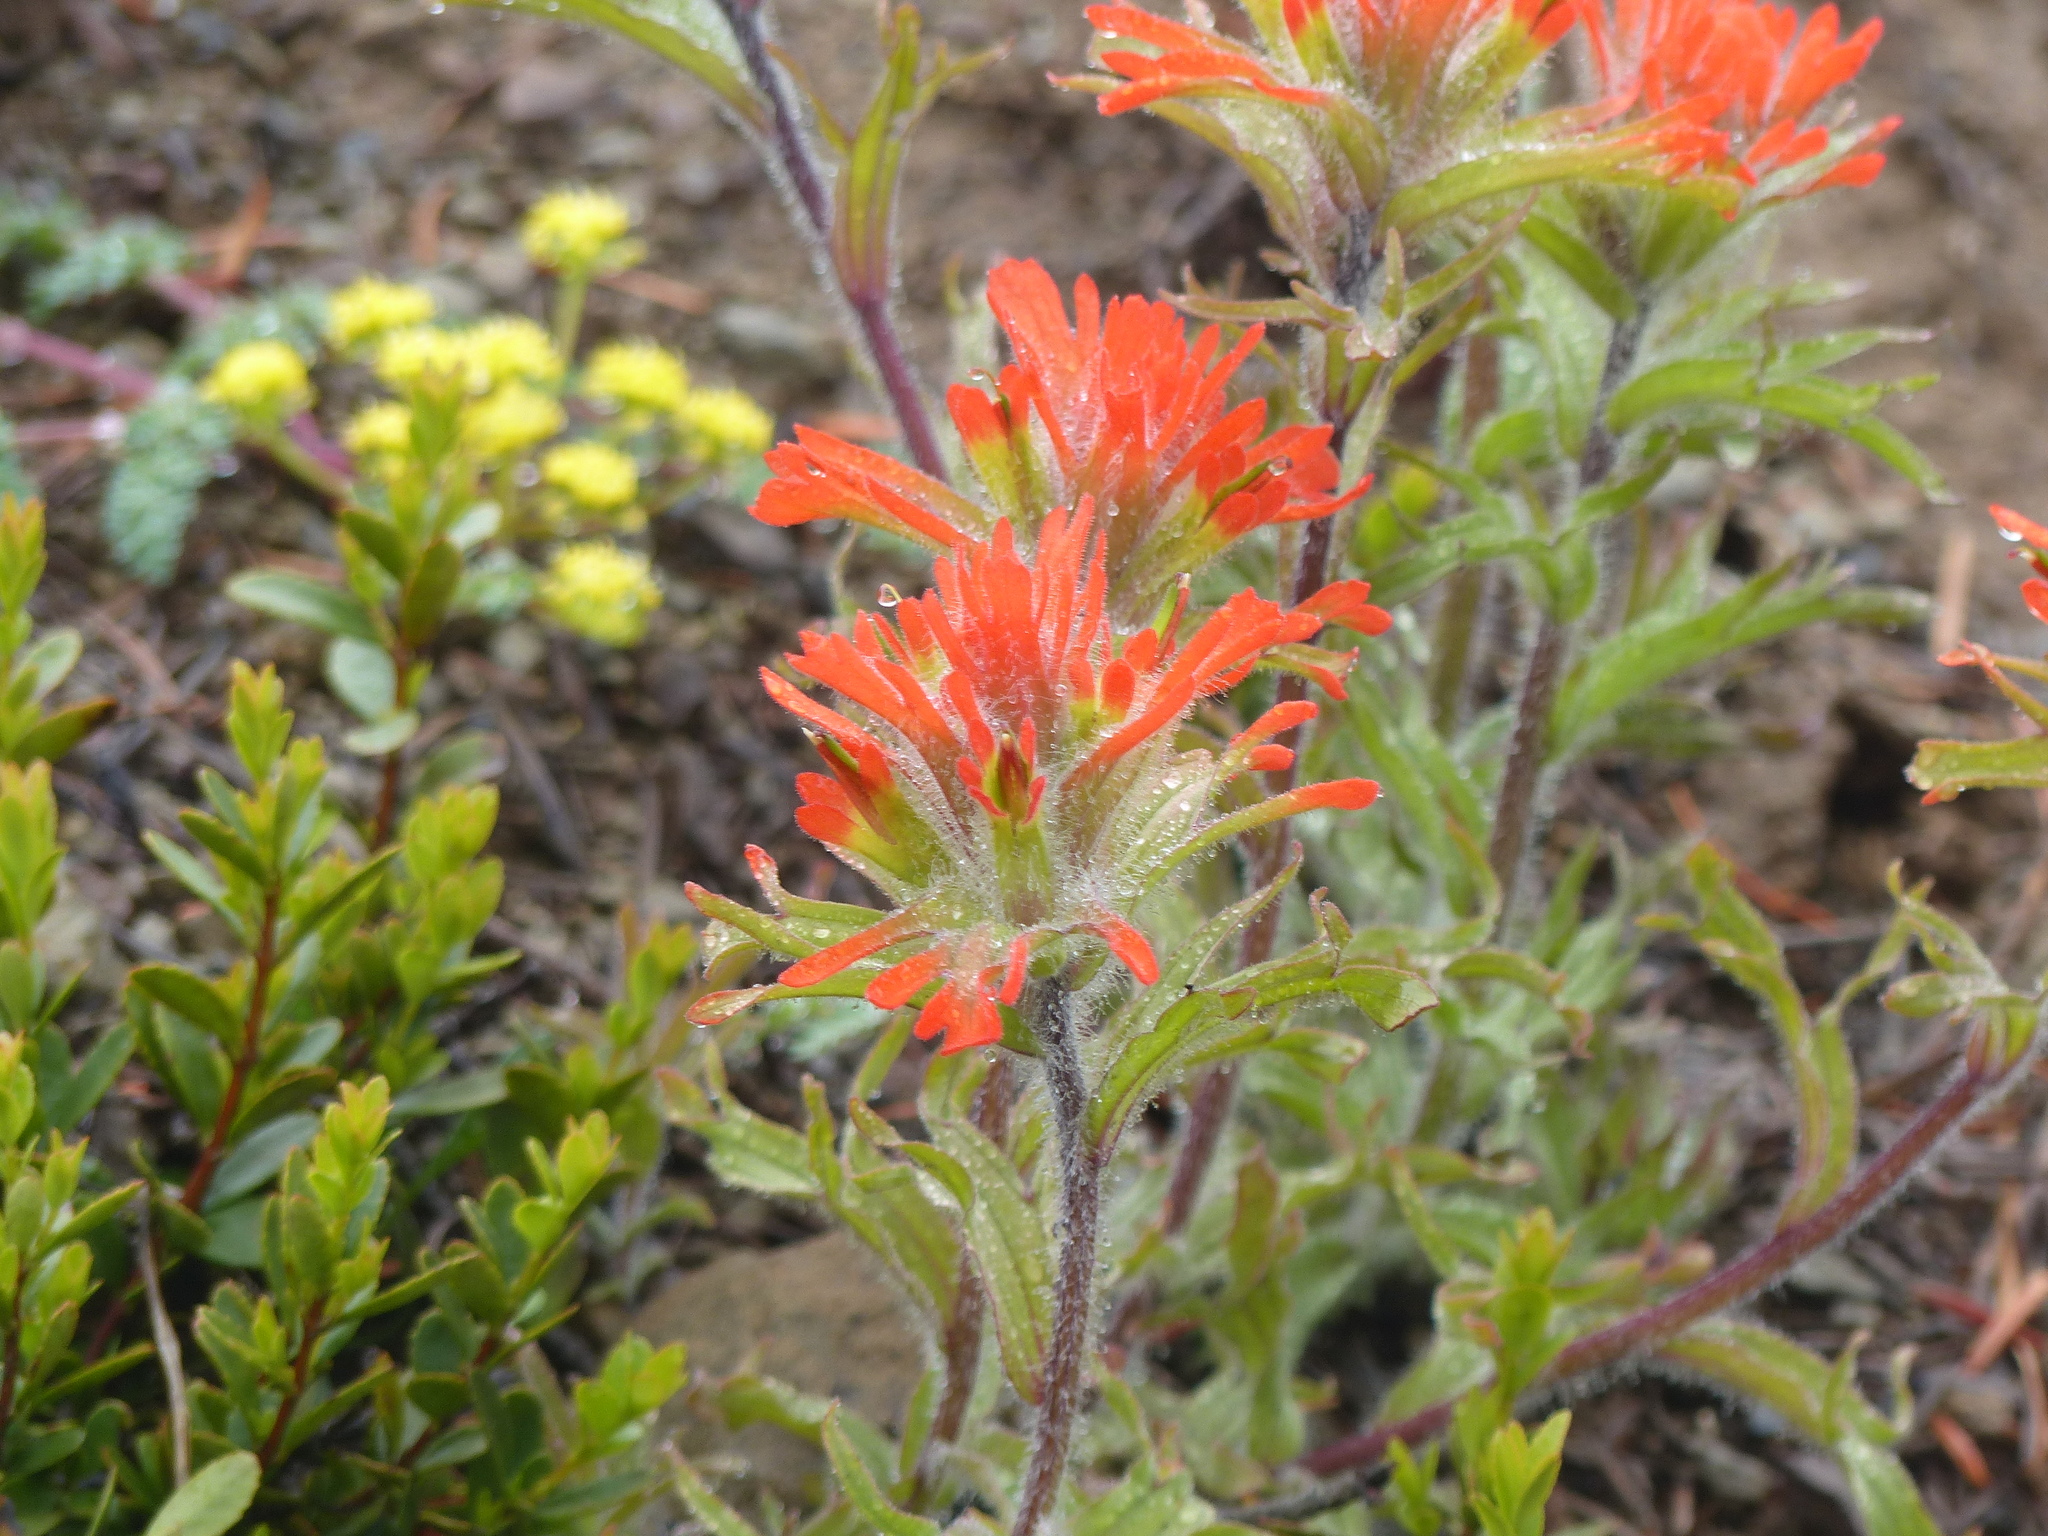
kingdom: Plantae
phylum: Tracheophyta
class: Magnoliopsida
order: Lamiales
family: Orobanchaceae
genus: Castilleja
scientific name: Castilleja hispida
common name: Bristly paintbrush
